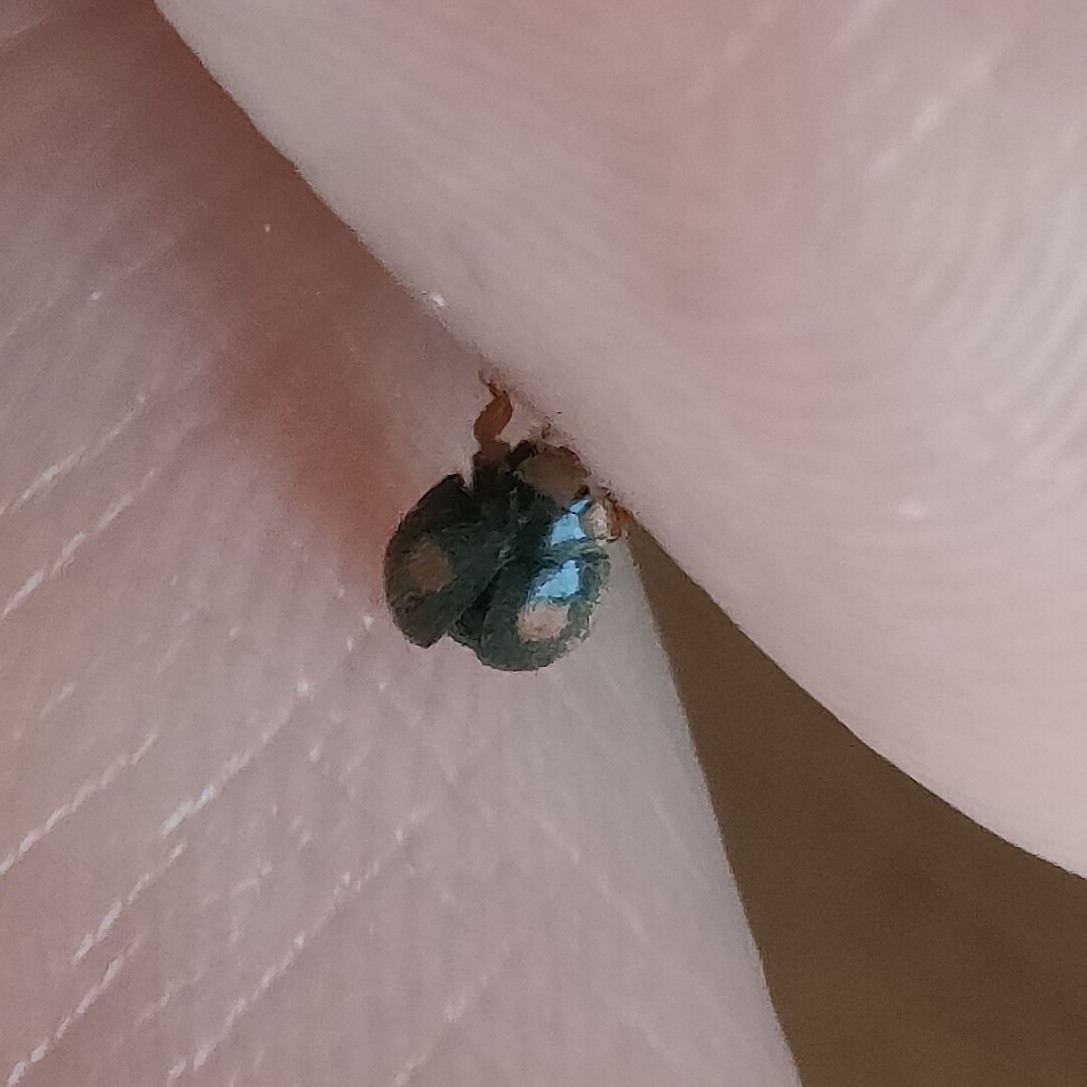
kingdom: Animalia
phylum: Arthropoda
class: Insecta
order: Coleoptera
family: Coccinellidae
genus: Platynaspis
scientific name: Platynaspis luteorubra
